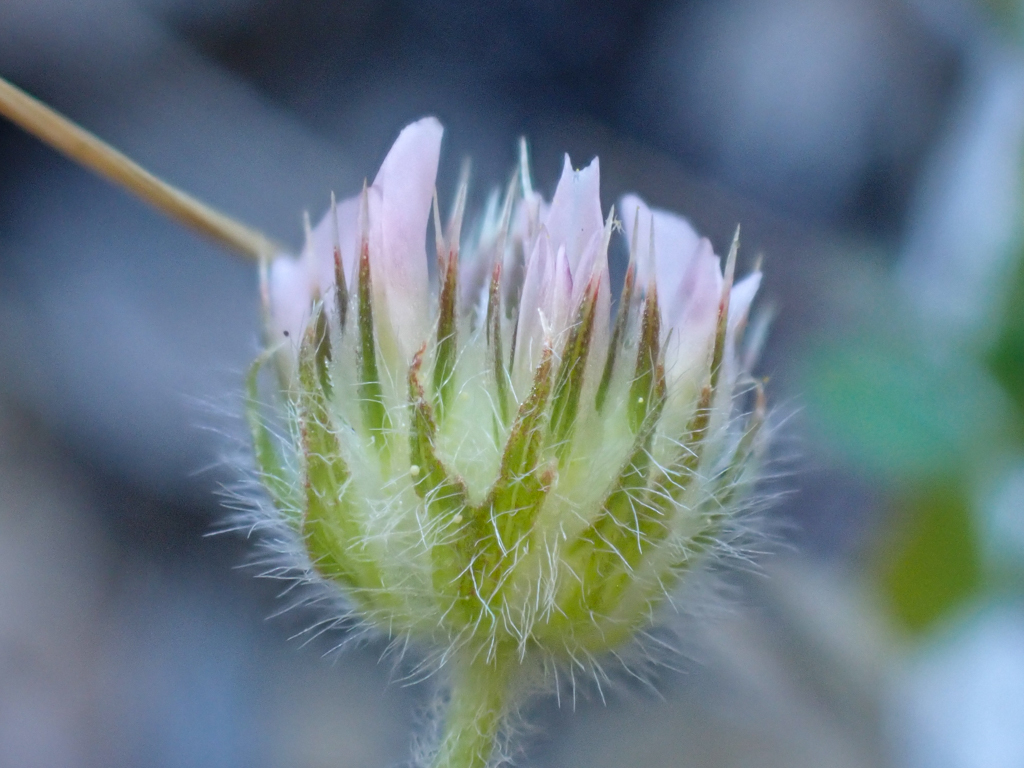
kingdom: Plantae
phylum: Tracheophyta
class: Magnoliopsida
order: Fabales
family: Fabaceae
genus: Trifolium
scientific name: Trifolium microcephalum
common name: Maiden clover
